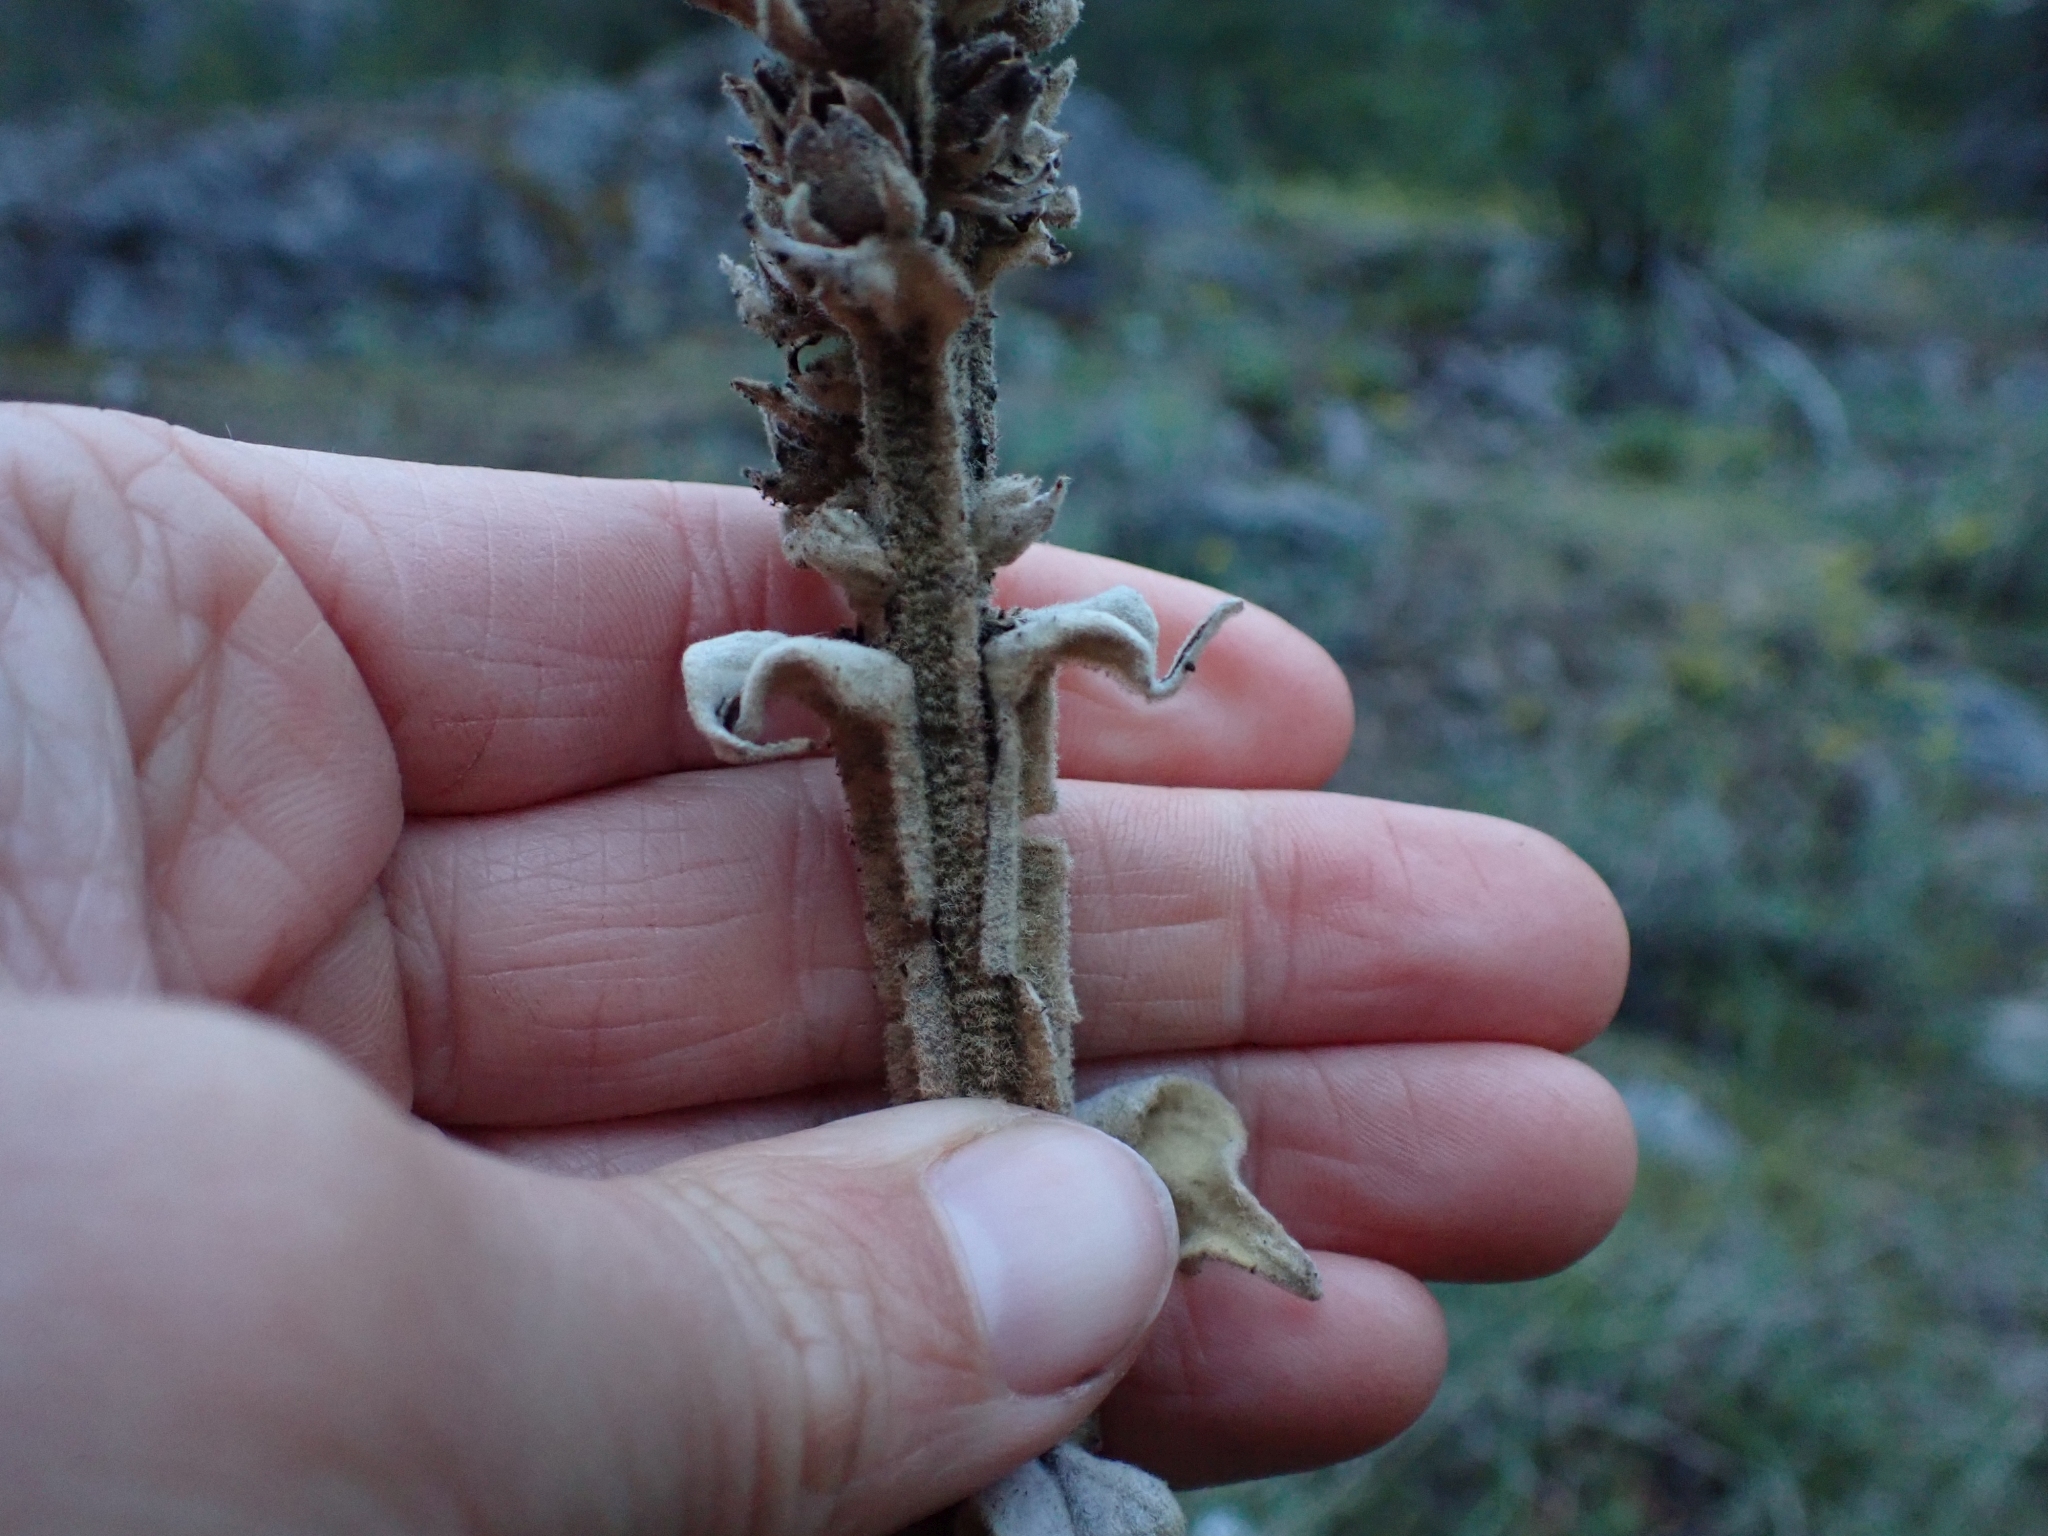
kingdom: Plantae
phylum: Tracheophyta
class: Magnoliopsida
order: Lamiales
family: Scrophulariaceae
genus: Verbascum
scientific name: Verbascum thapsus
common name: Common mullein
